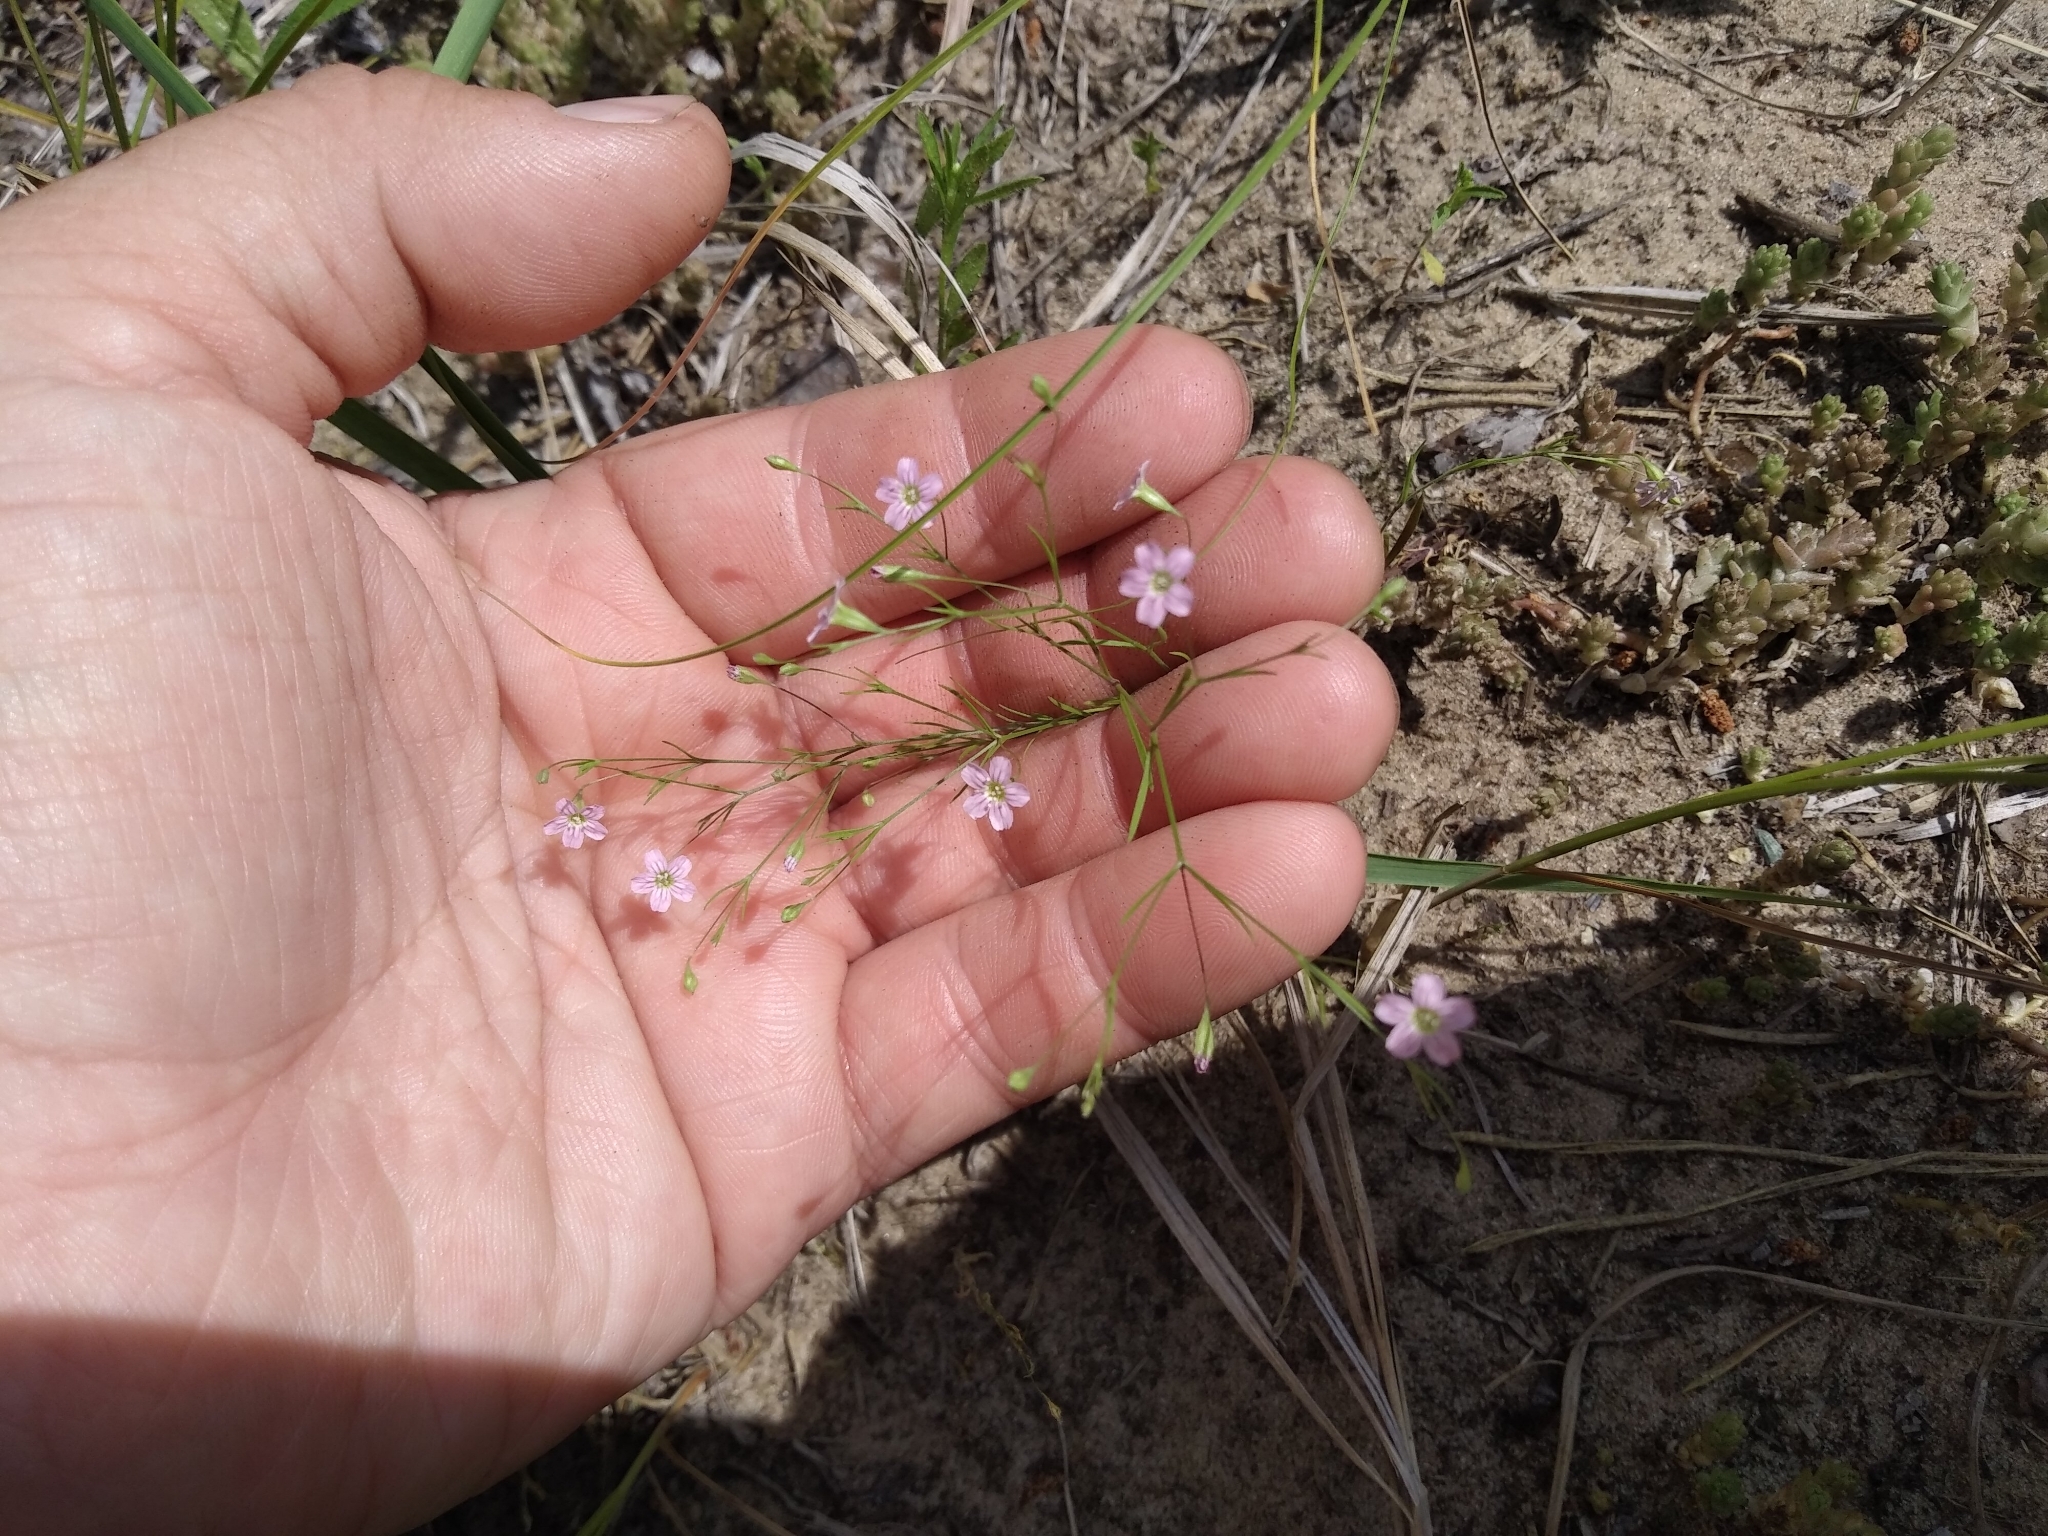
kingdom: Plantae
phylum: Tracheophyta
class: Magnoliopsida
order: Caryophyllales
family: Caryophyllaceae
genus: Psammophiliella
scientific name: Psammophiliella muralis
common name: Cushion baby's-breath
